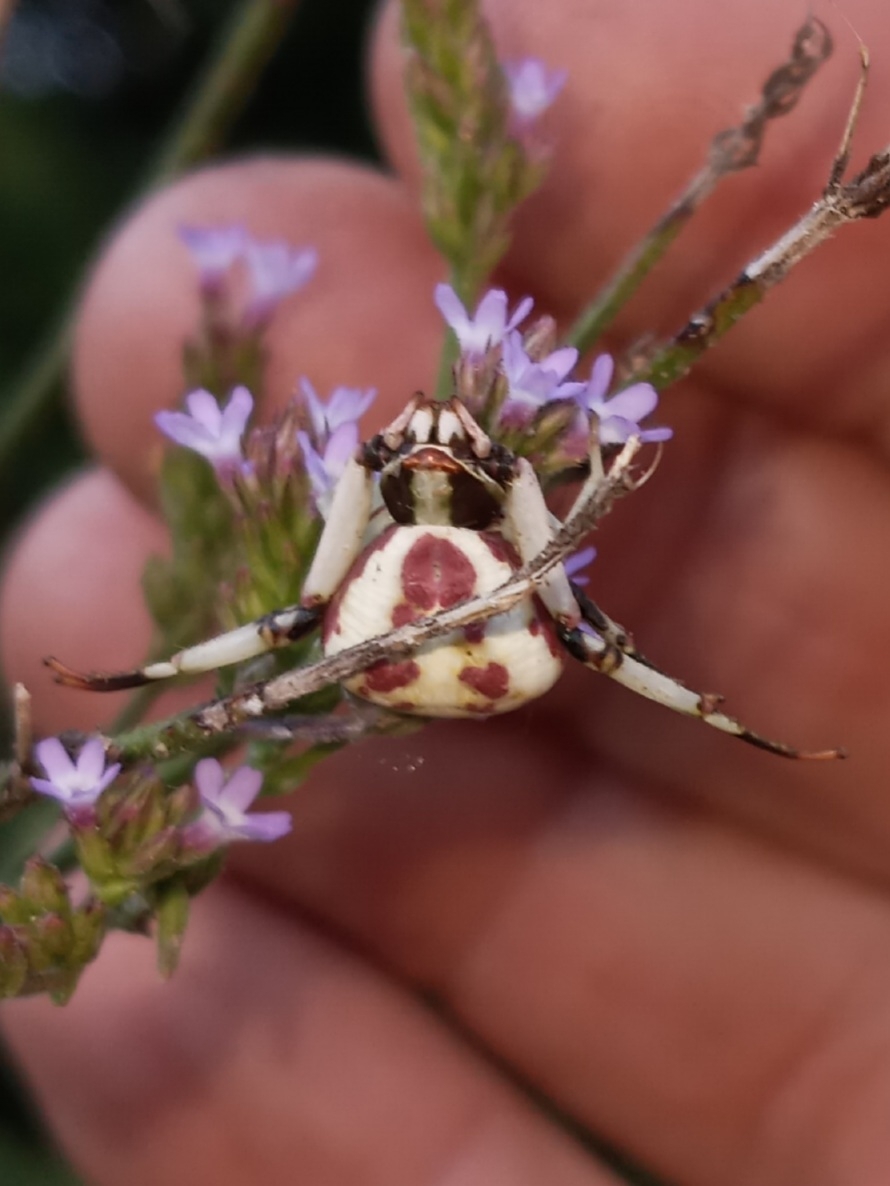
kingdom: Animalia
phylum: Arthropoda
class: Arachnida
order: Araneae
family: Thomisidae
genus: Misumenoides
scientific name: Misumenoides formosipes
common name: White-banded crab spider
